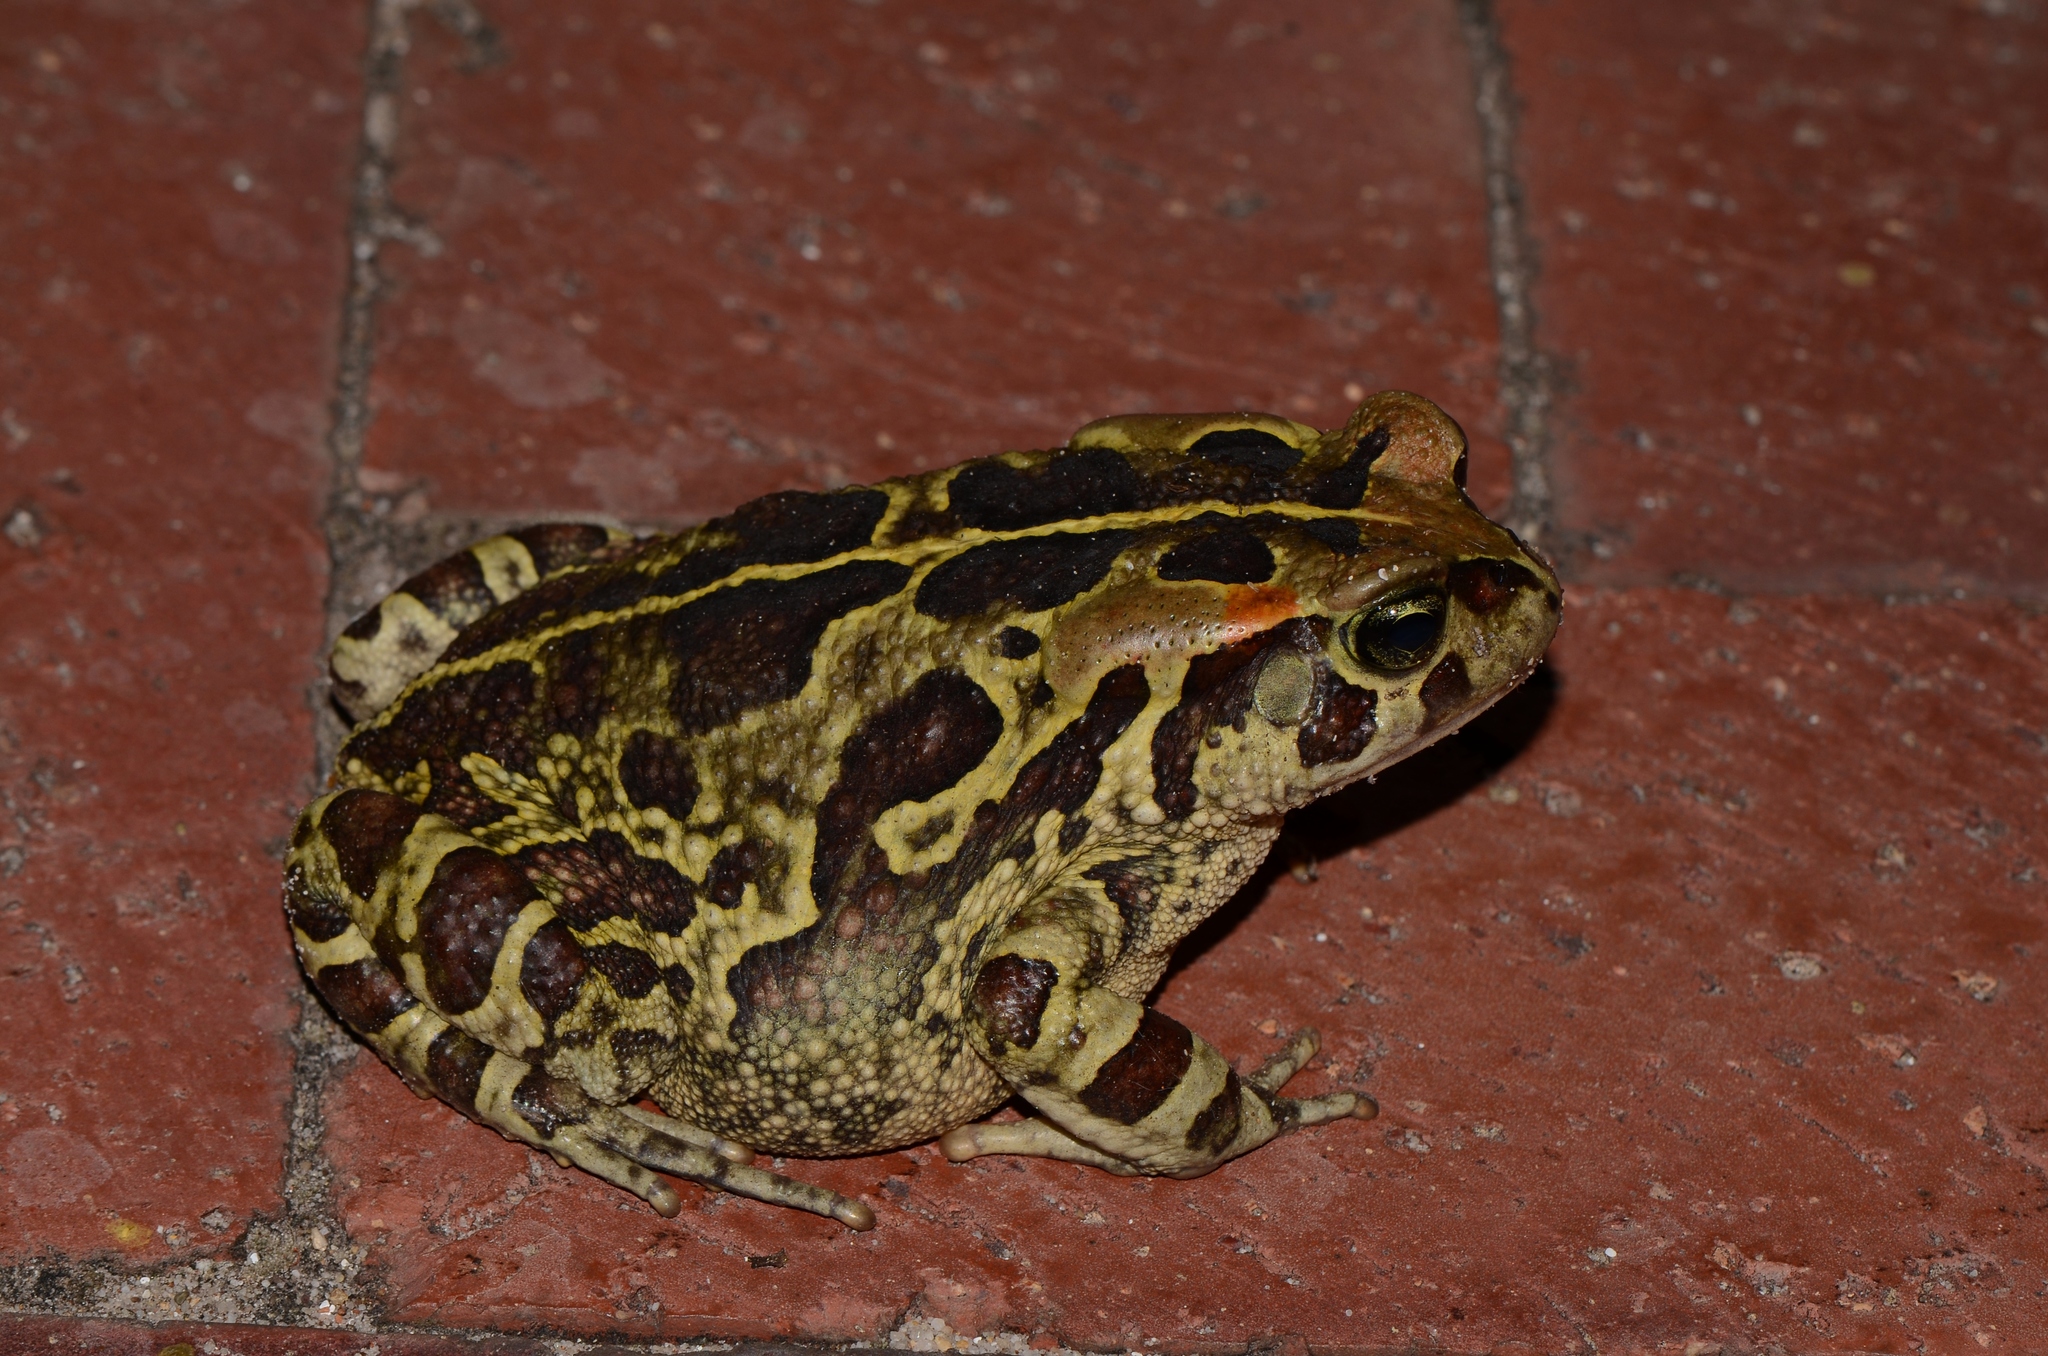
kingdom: Animalia
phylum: Chordata
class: Amphibia
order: Anura
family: Bufonidae
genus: Sclerophrys
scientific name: Sclerophrys pantherina
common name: Panther toad
